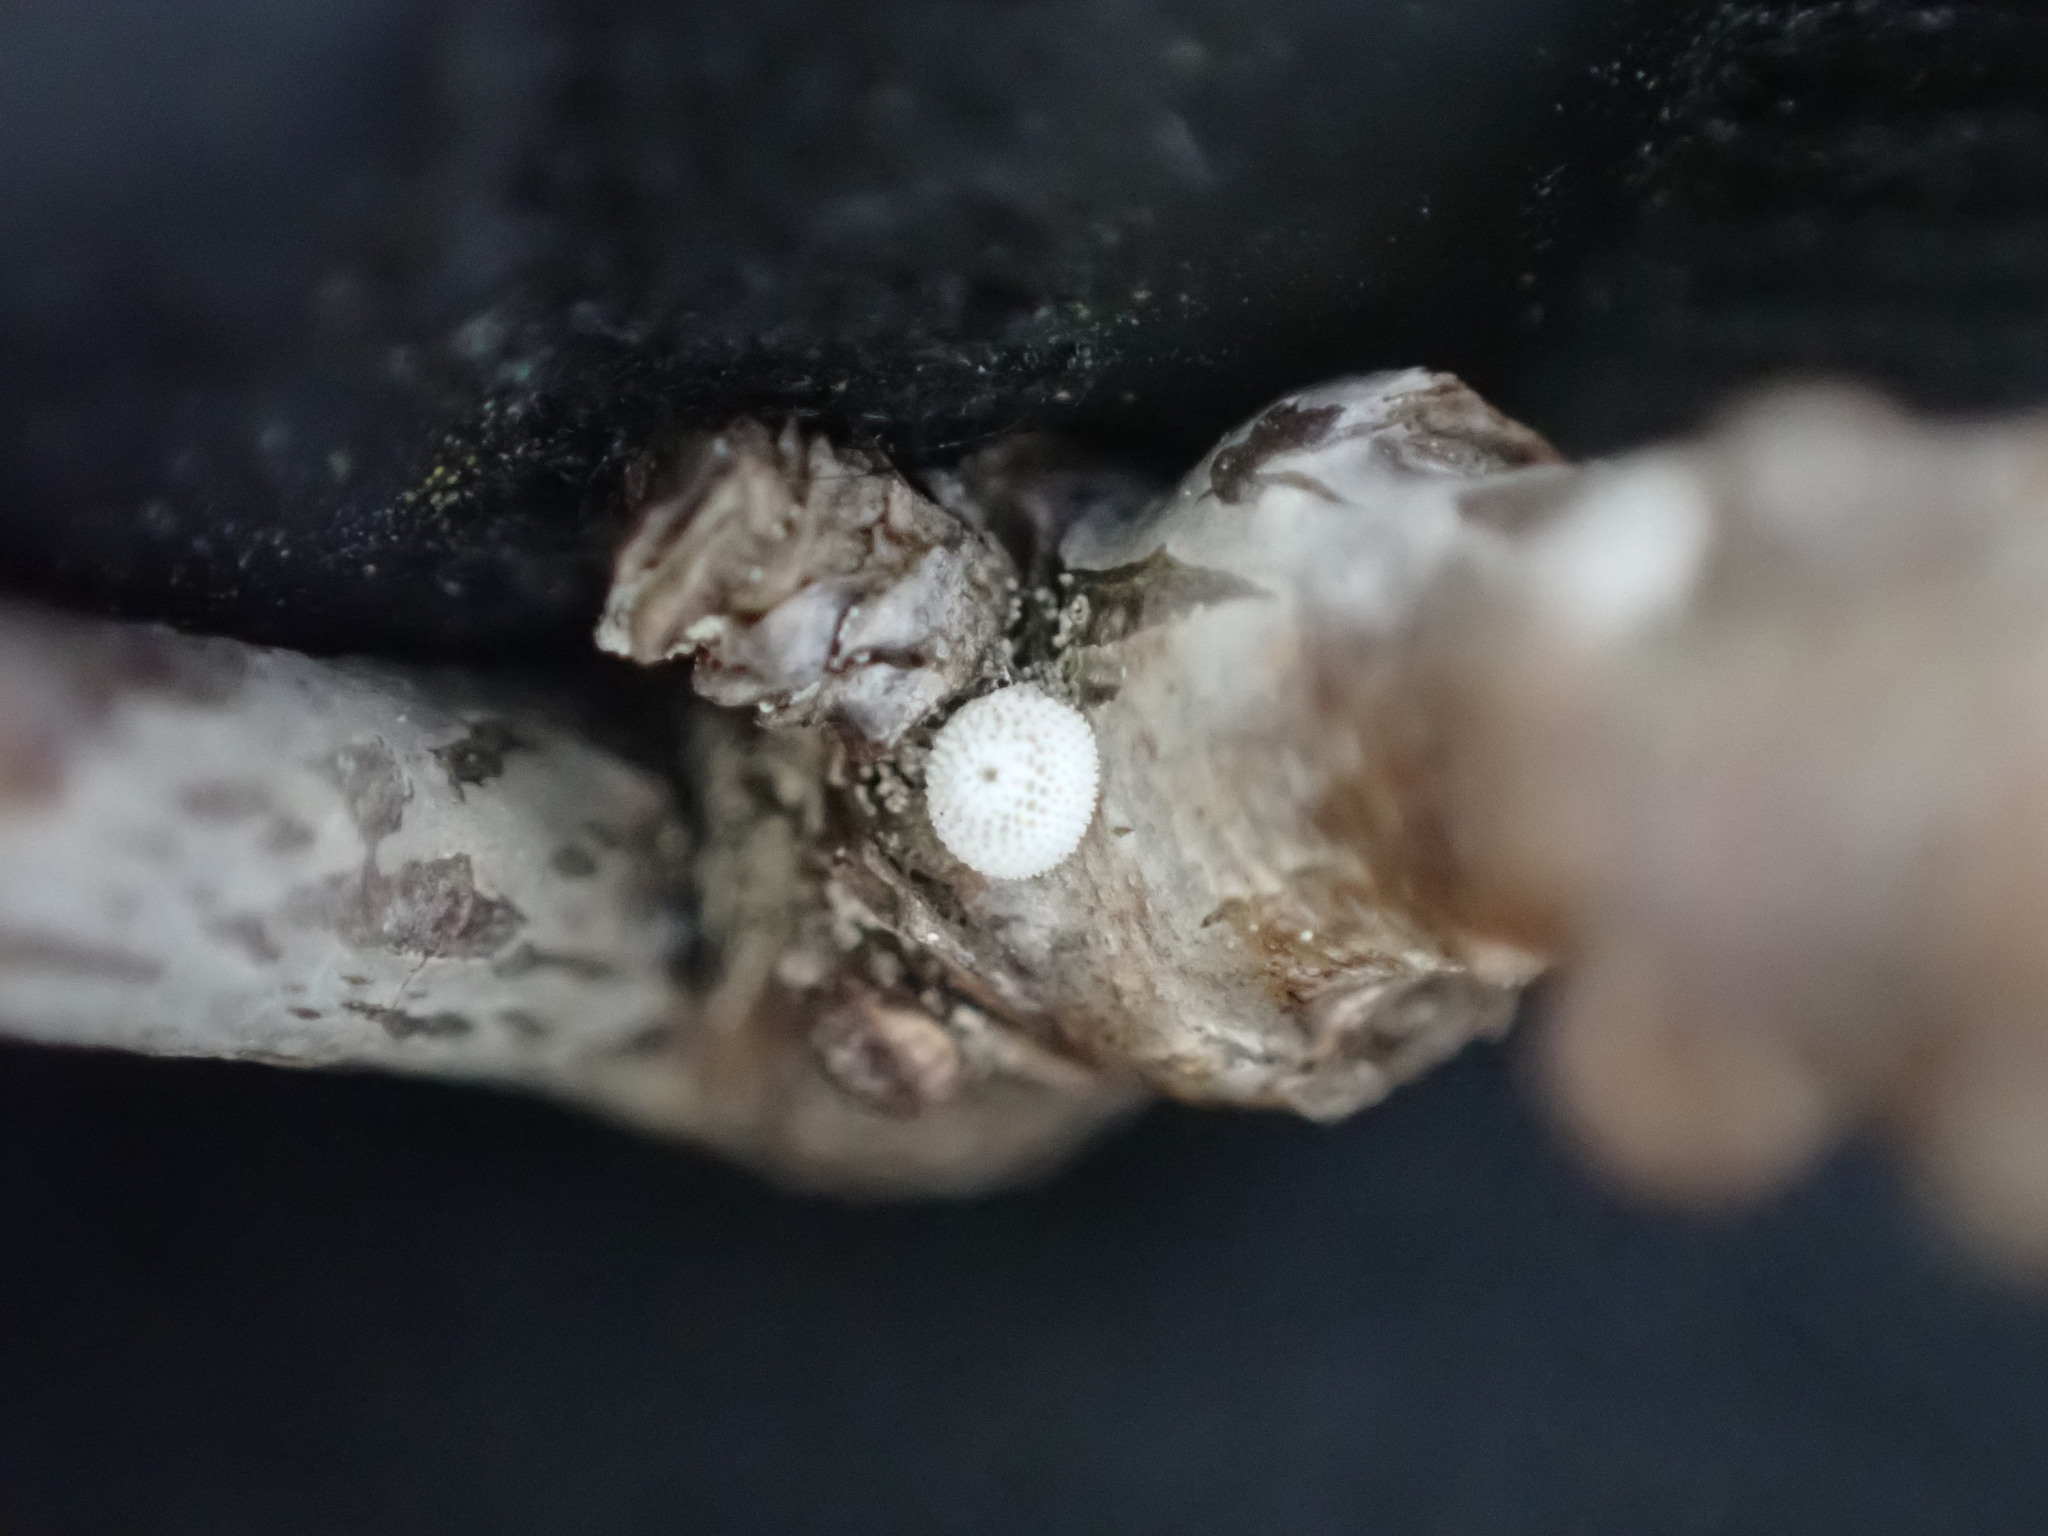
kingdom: Animalia
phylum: Arthropoda
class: Insecta
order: Lepidoptera
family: Lycaenidae
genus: Thecla
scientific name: Thecla betulae
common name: Brown hairstreak
